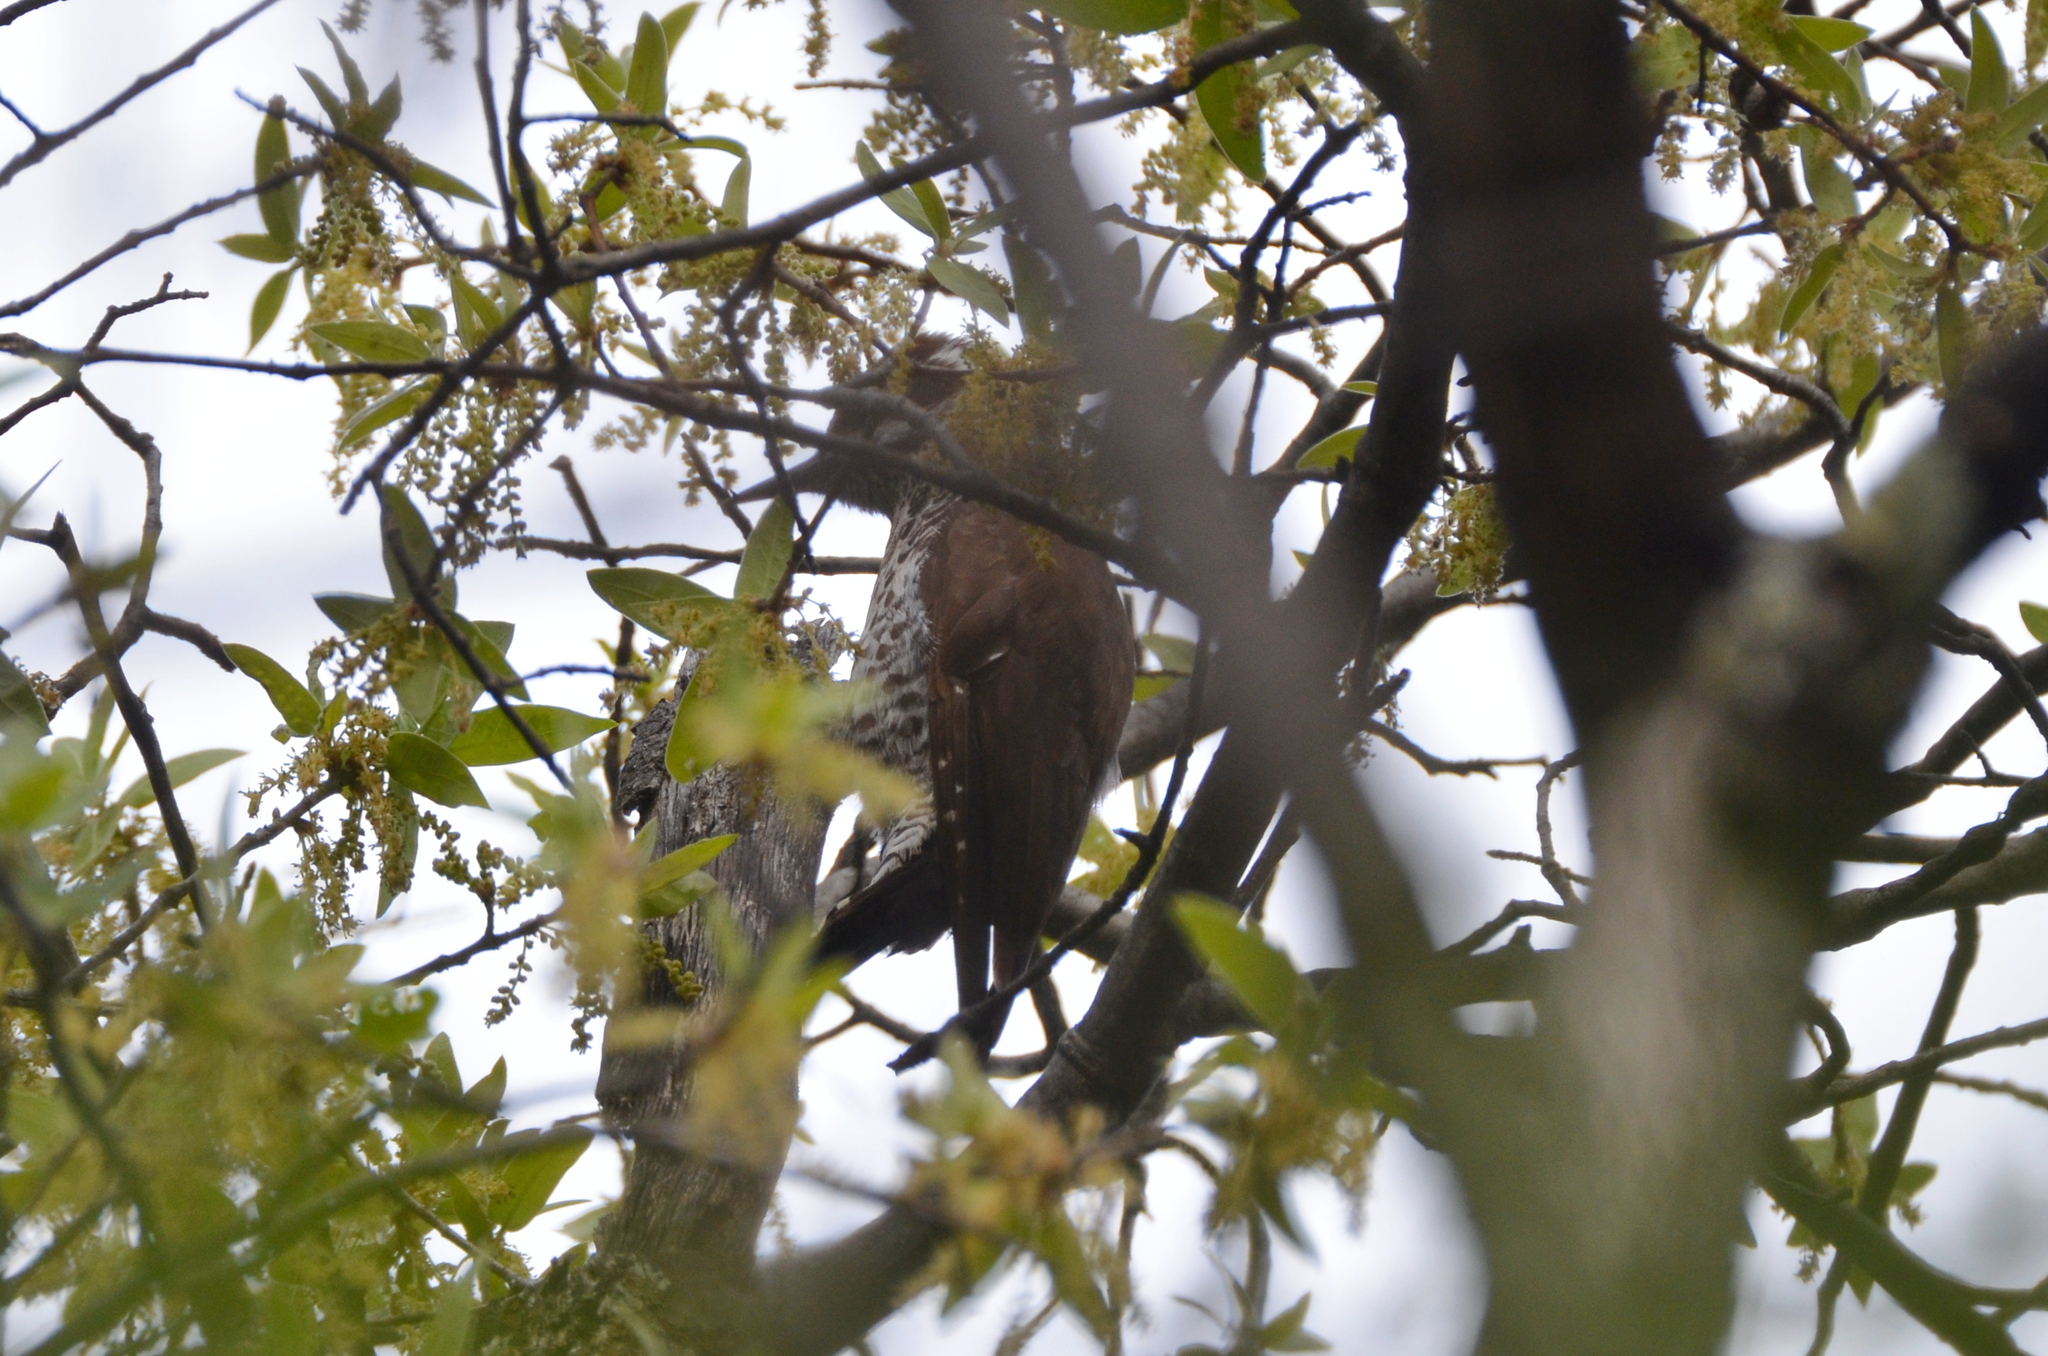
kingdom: Animalia
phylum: Chordata
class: Aves
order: Piciformes
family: Picidae
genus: Leuconotopicus
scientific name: Leuconotopicus arizonae
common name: Arizona woodpecker
